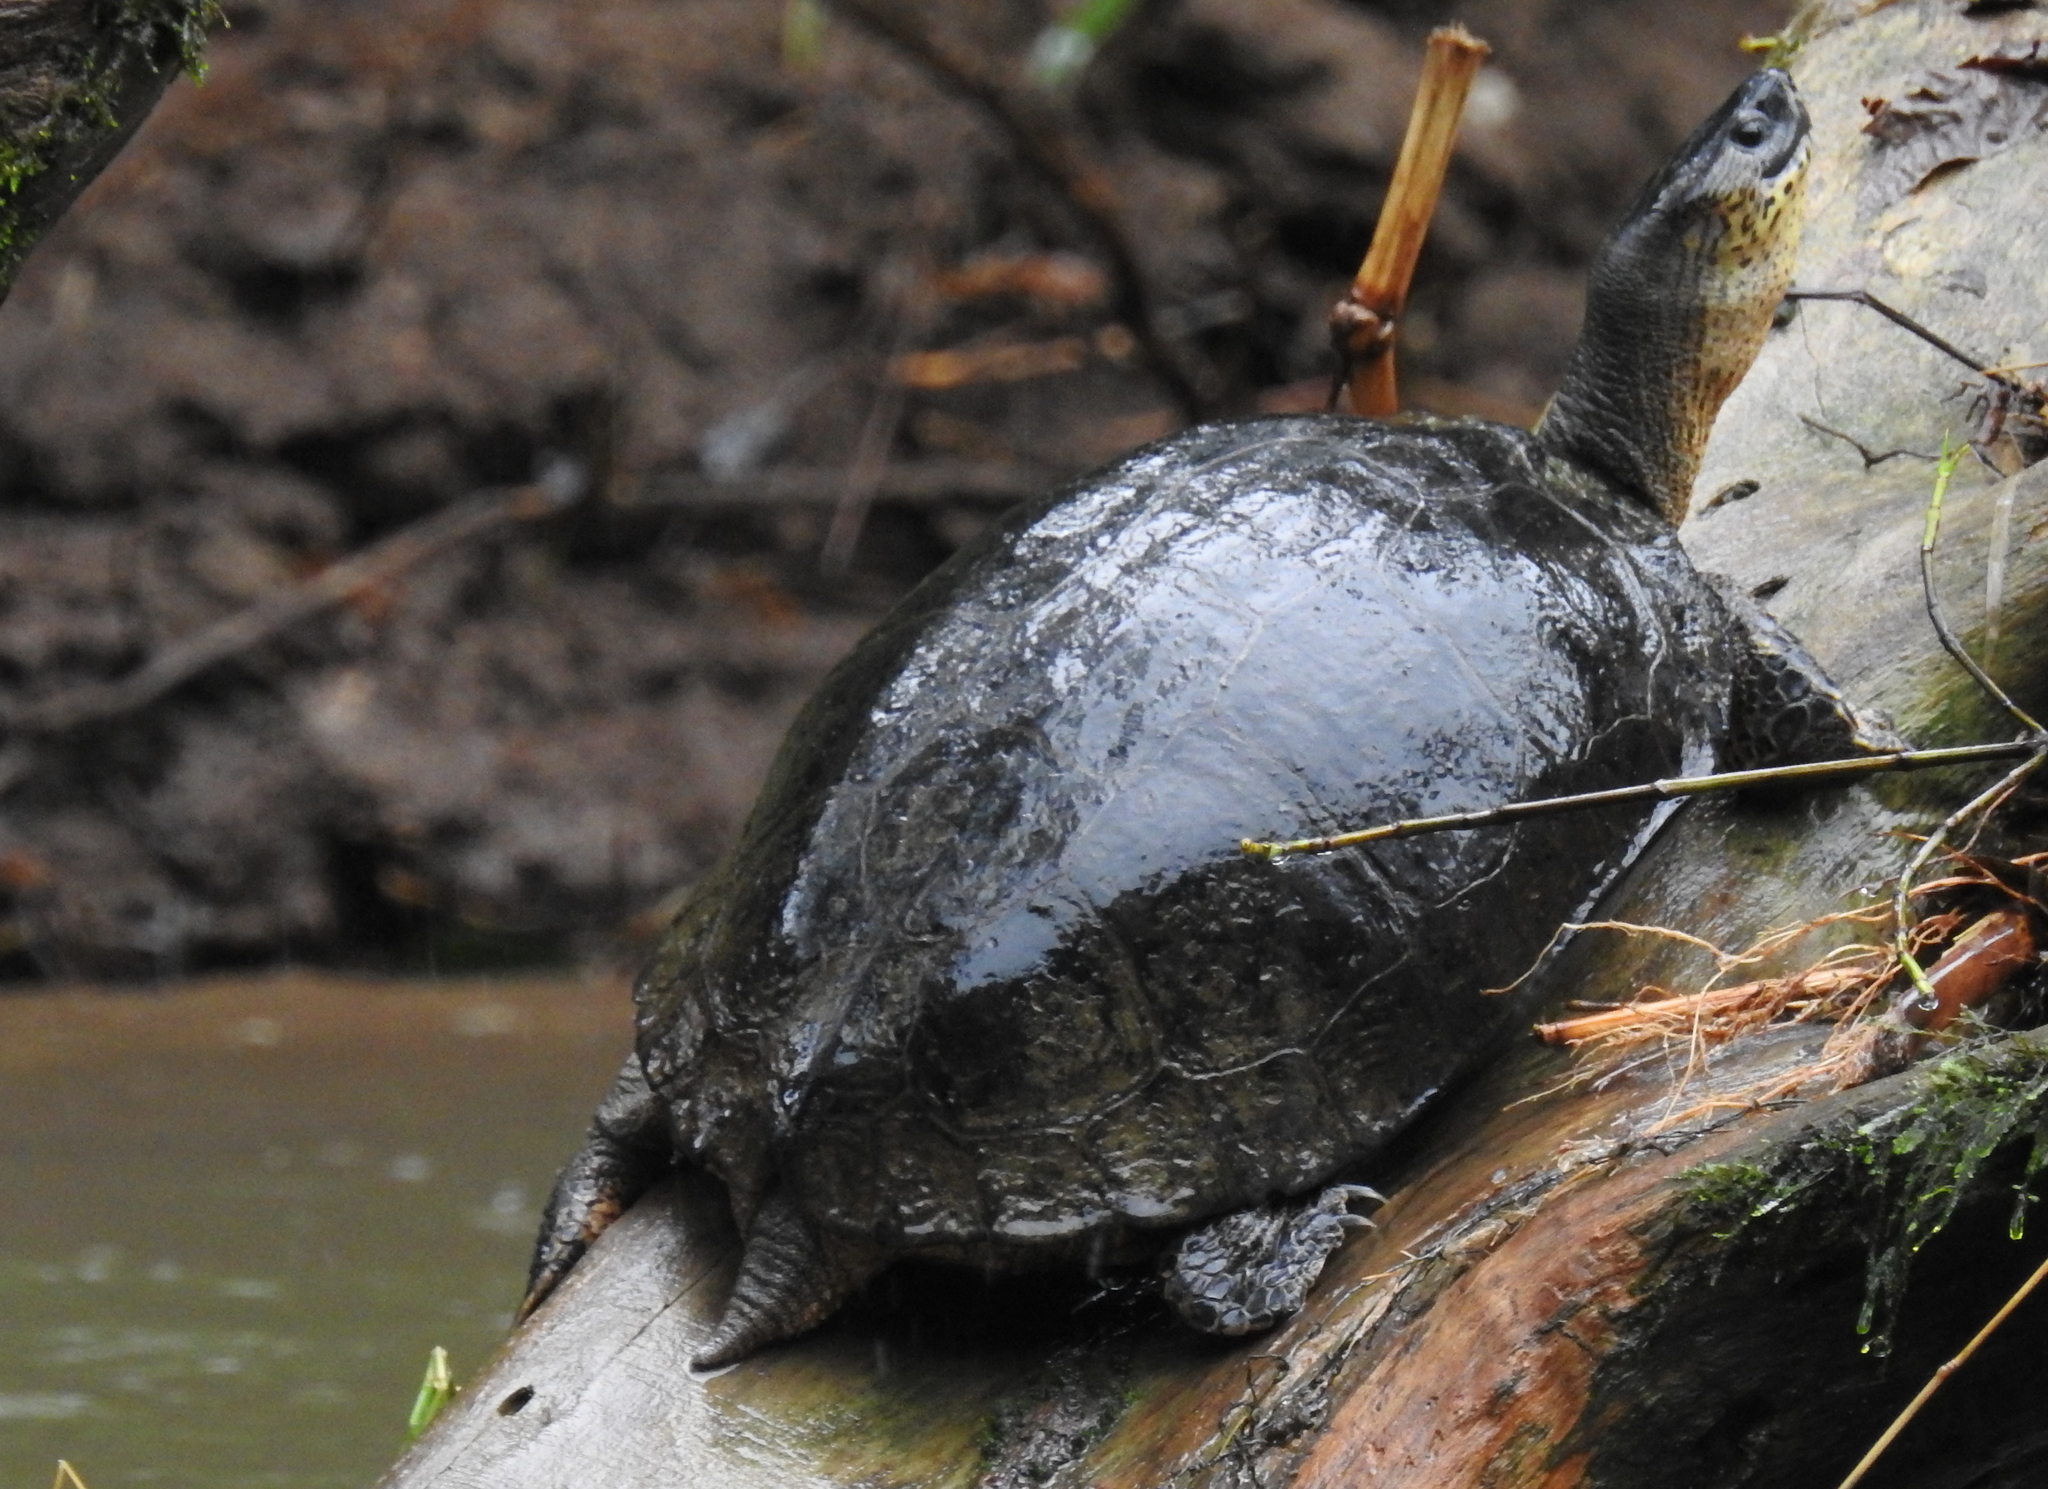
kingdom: Animalia
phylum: Chordata
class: Testudines
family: Geoemydidae
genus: Rhinoclemmys
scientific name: Rhinoclemmys funerea
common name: Black wood turtle
